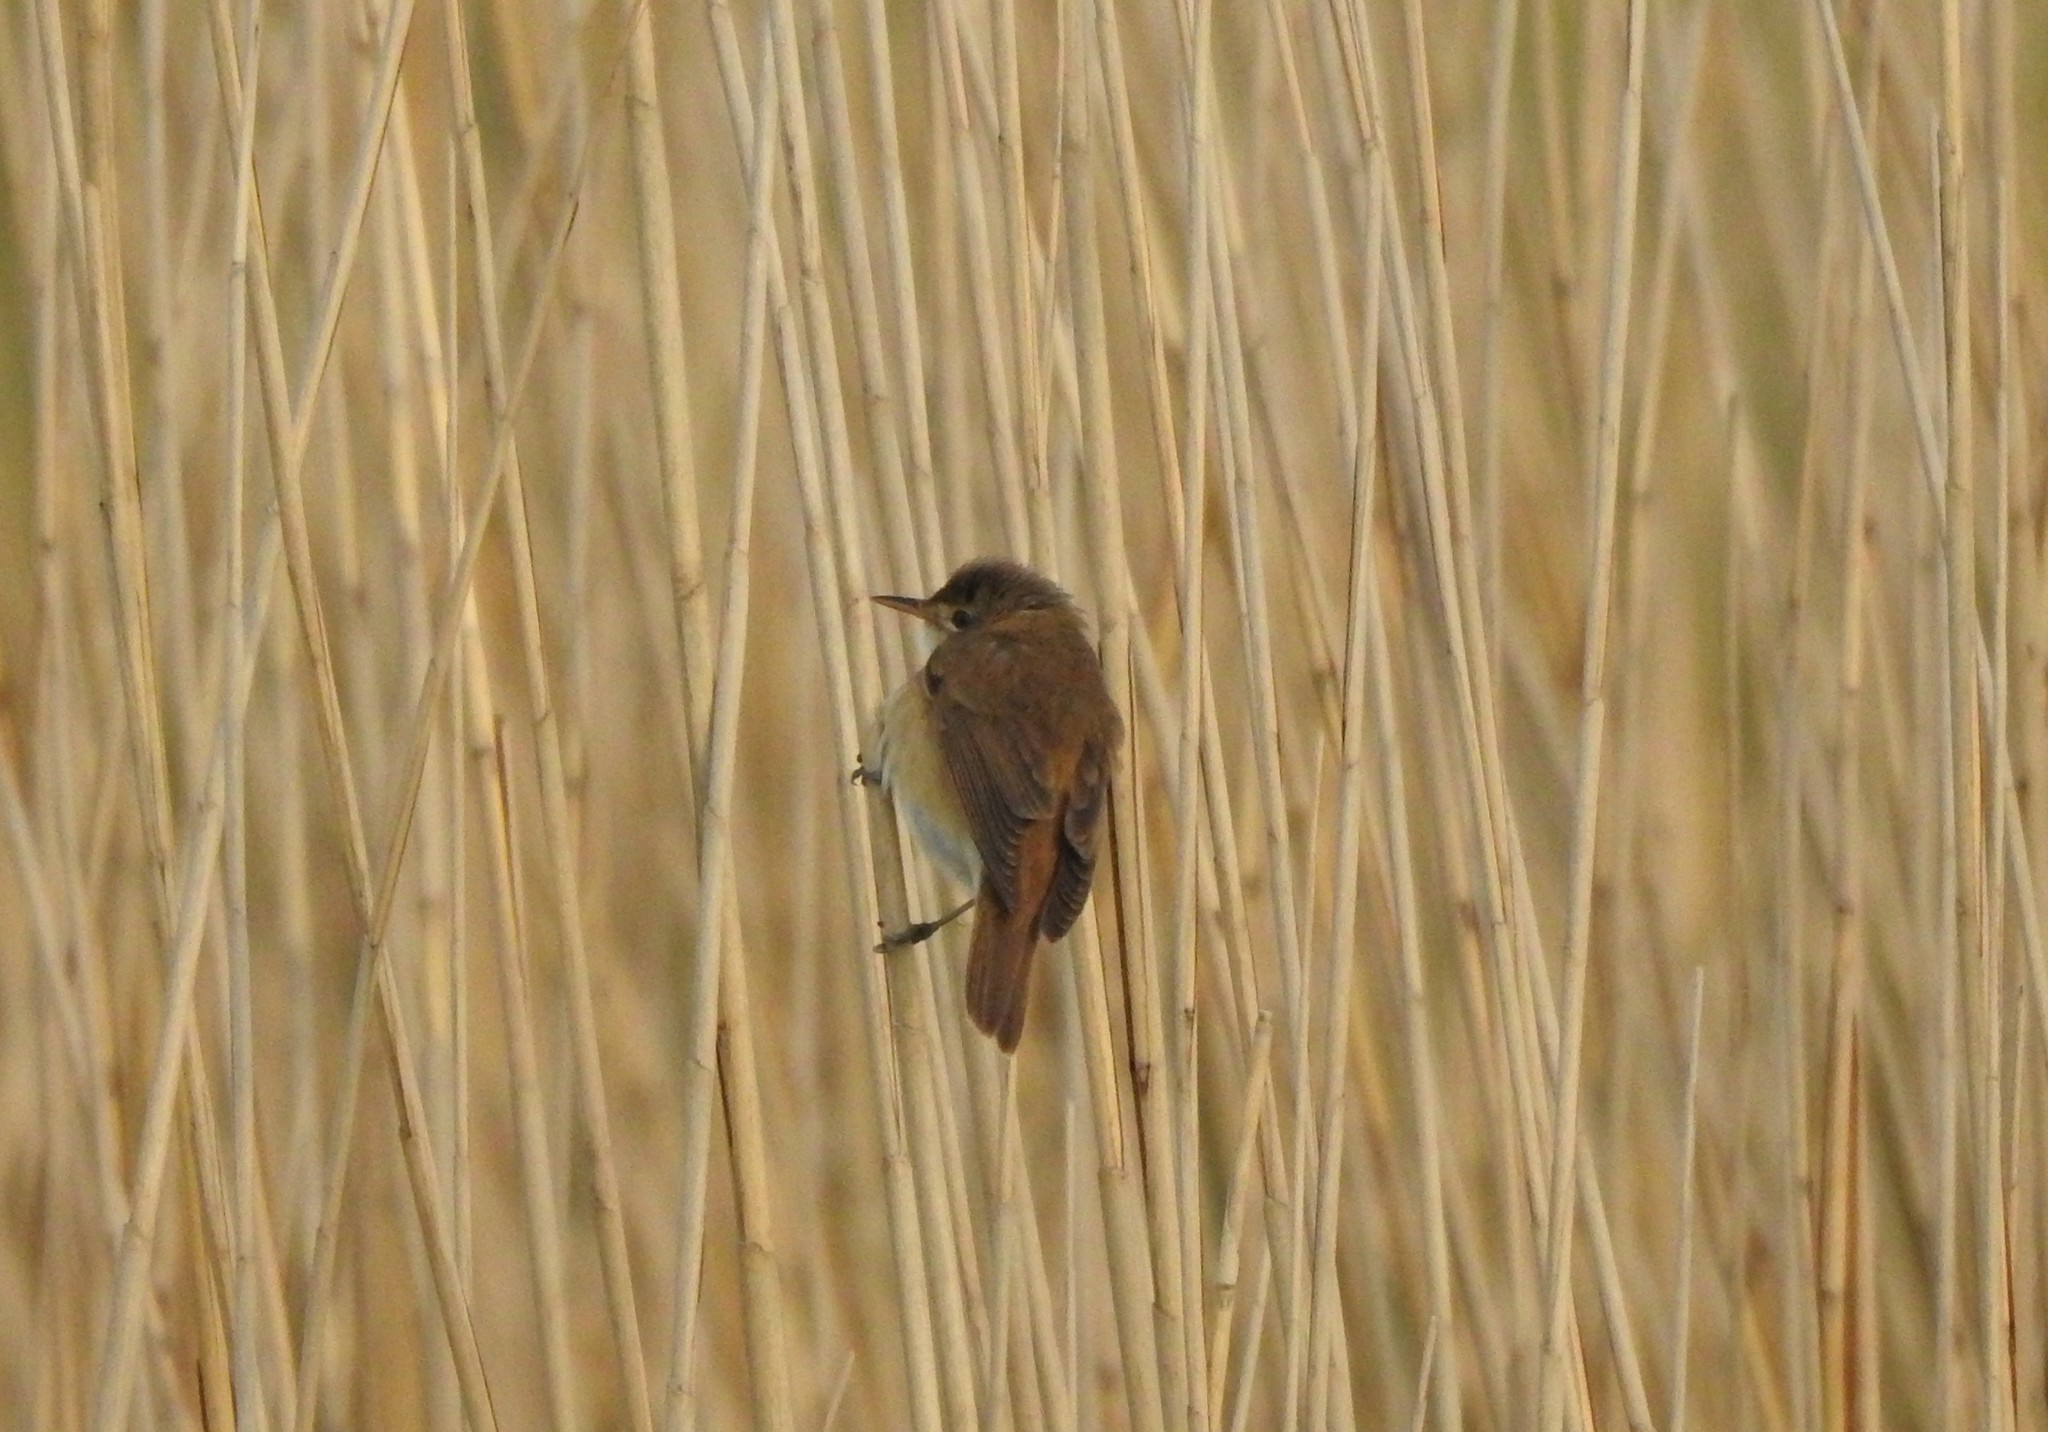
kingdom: Animalia
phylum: Chordata
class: Aves
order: Passeriformes
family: Acrocephalidae
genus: Acrocephalus
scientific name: Acrocephalus scirpaceus
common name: Eurasian reed warbler
